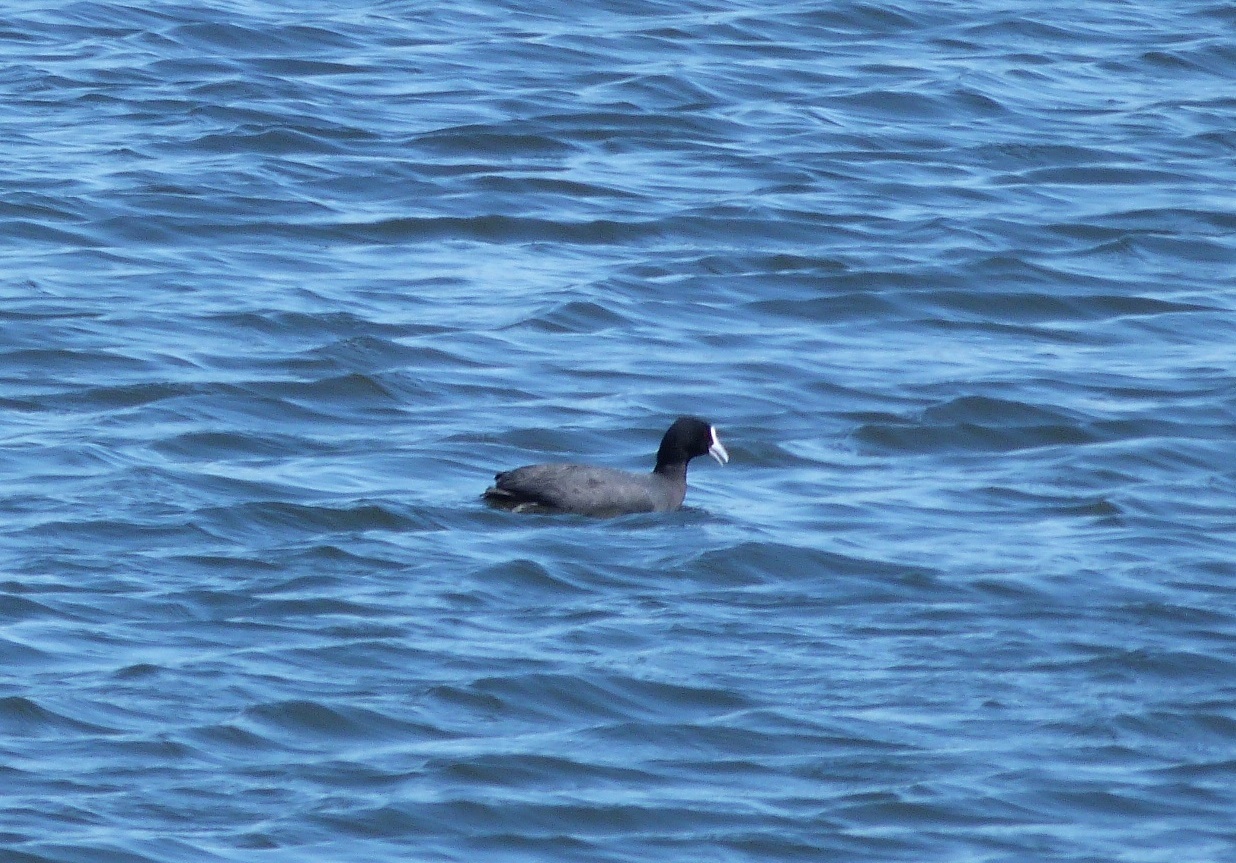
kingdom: Animalia
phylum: Chordata
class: Aves
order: Gruiformes
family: Rallidae
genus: Fulica
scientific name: Fulica atra
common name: Eurasian coot
